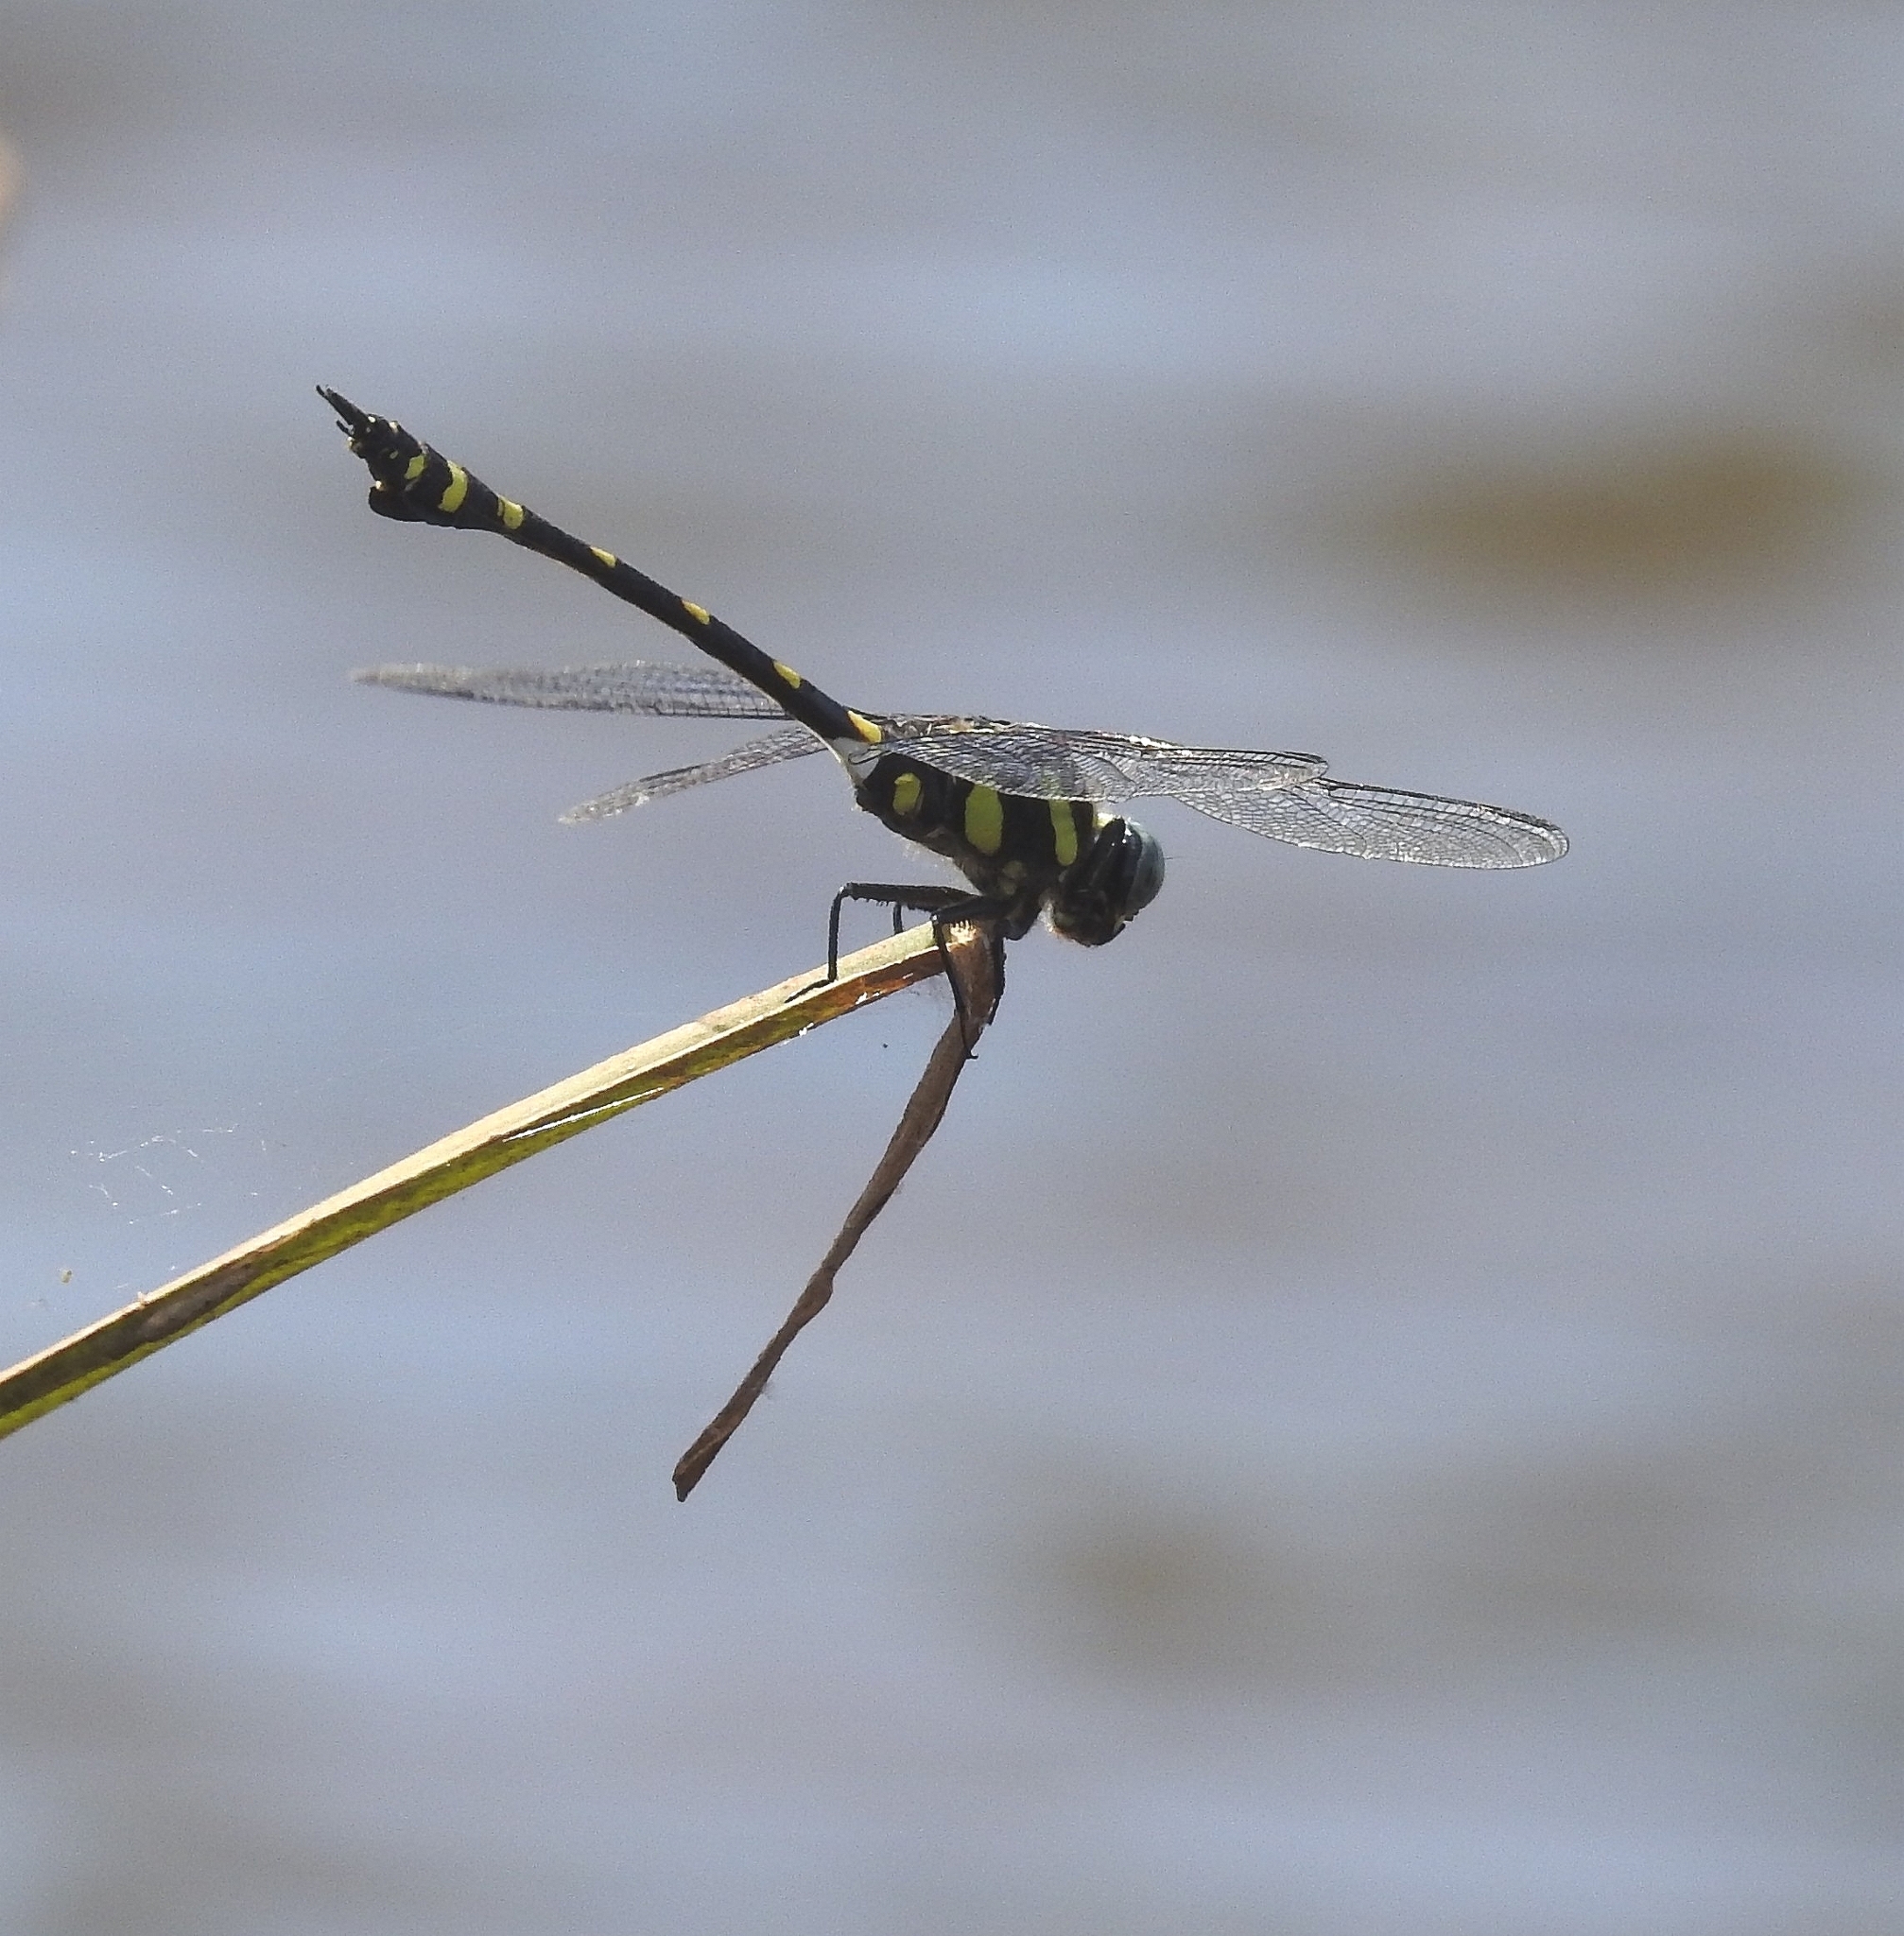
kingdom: Animalia
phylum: Arthropoda
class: Insecta
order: Odonata
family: Gomphidae
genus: Ictinogomphus
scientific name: Ictinogomphus rapax
